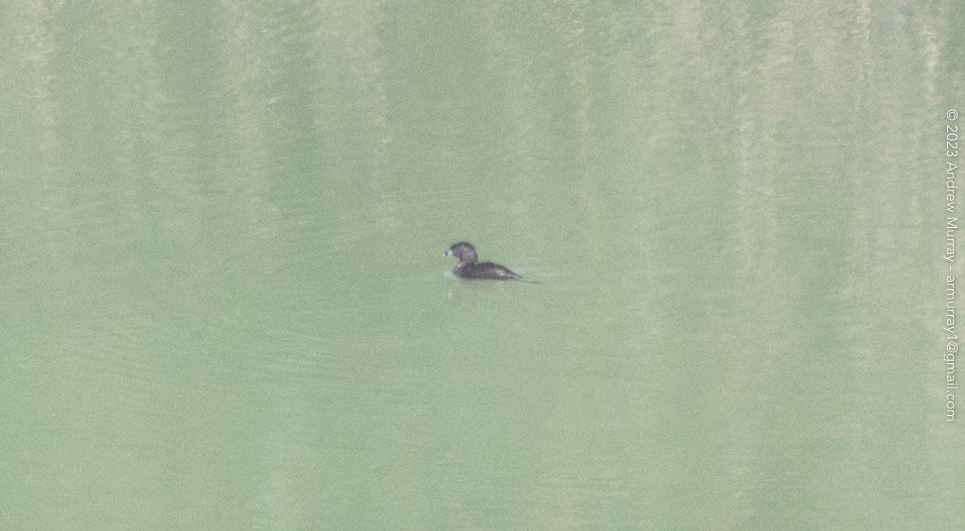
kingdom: Animalia
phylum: Chordata
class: Aves
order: Podicipediformes
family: Podicipedidae
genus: Podilymbus
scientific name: Podilymbus podiceps
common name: Pied-billed grebe
